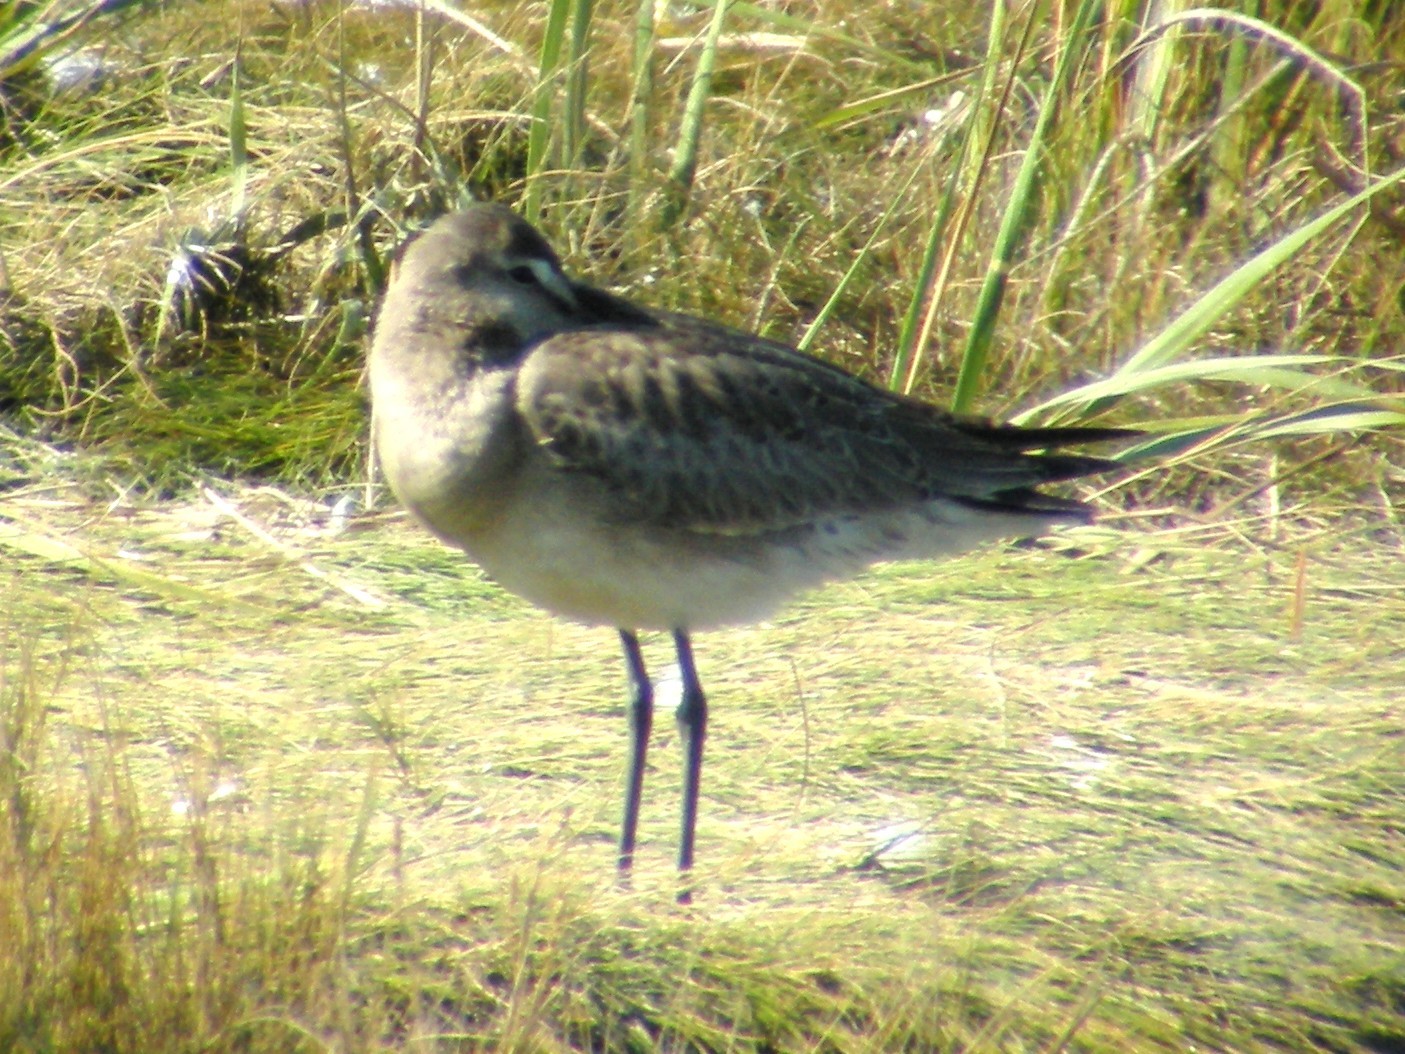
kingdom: Animalia
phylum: Chordata
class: Aves
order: Charadriiformes
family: Scolopacidae
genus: Limosa
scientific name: Limosa haemastica
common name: Hudsonian godwit
